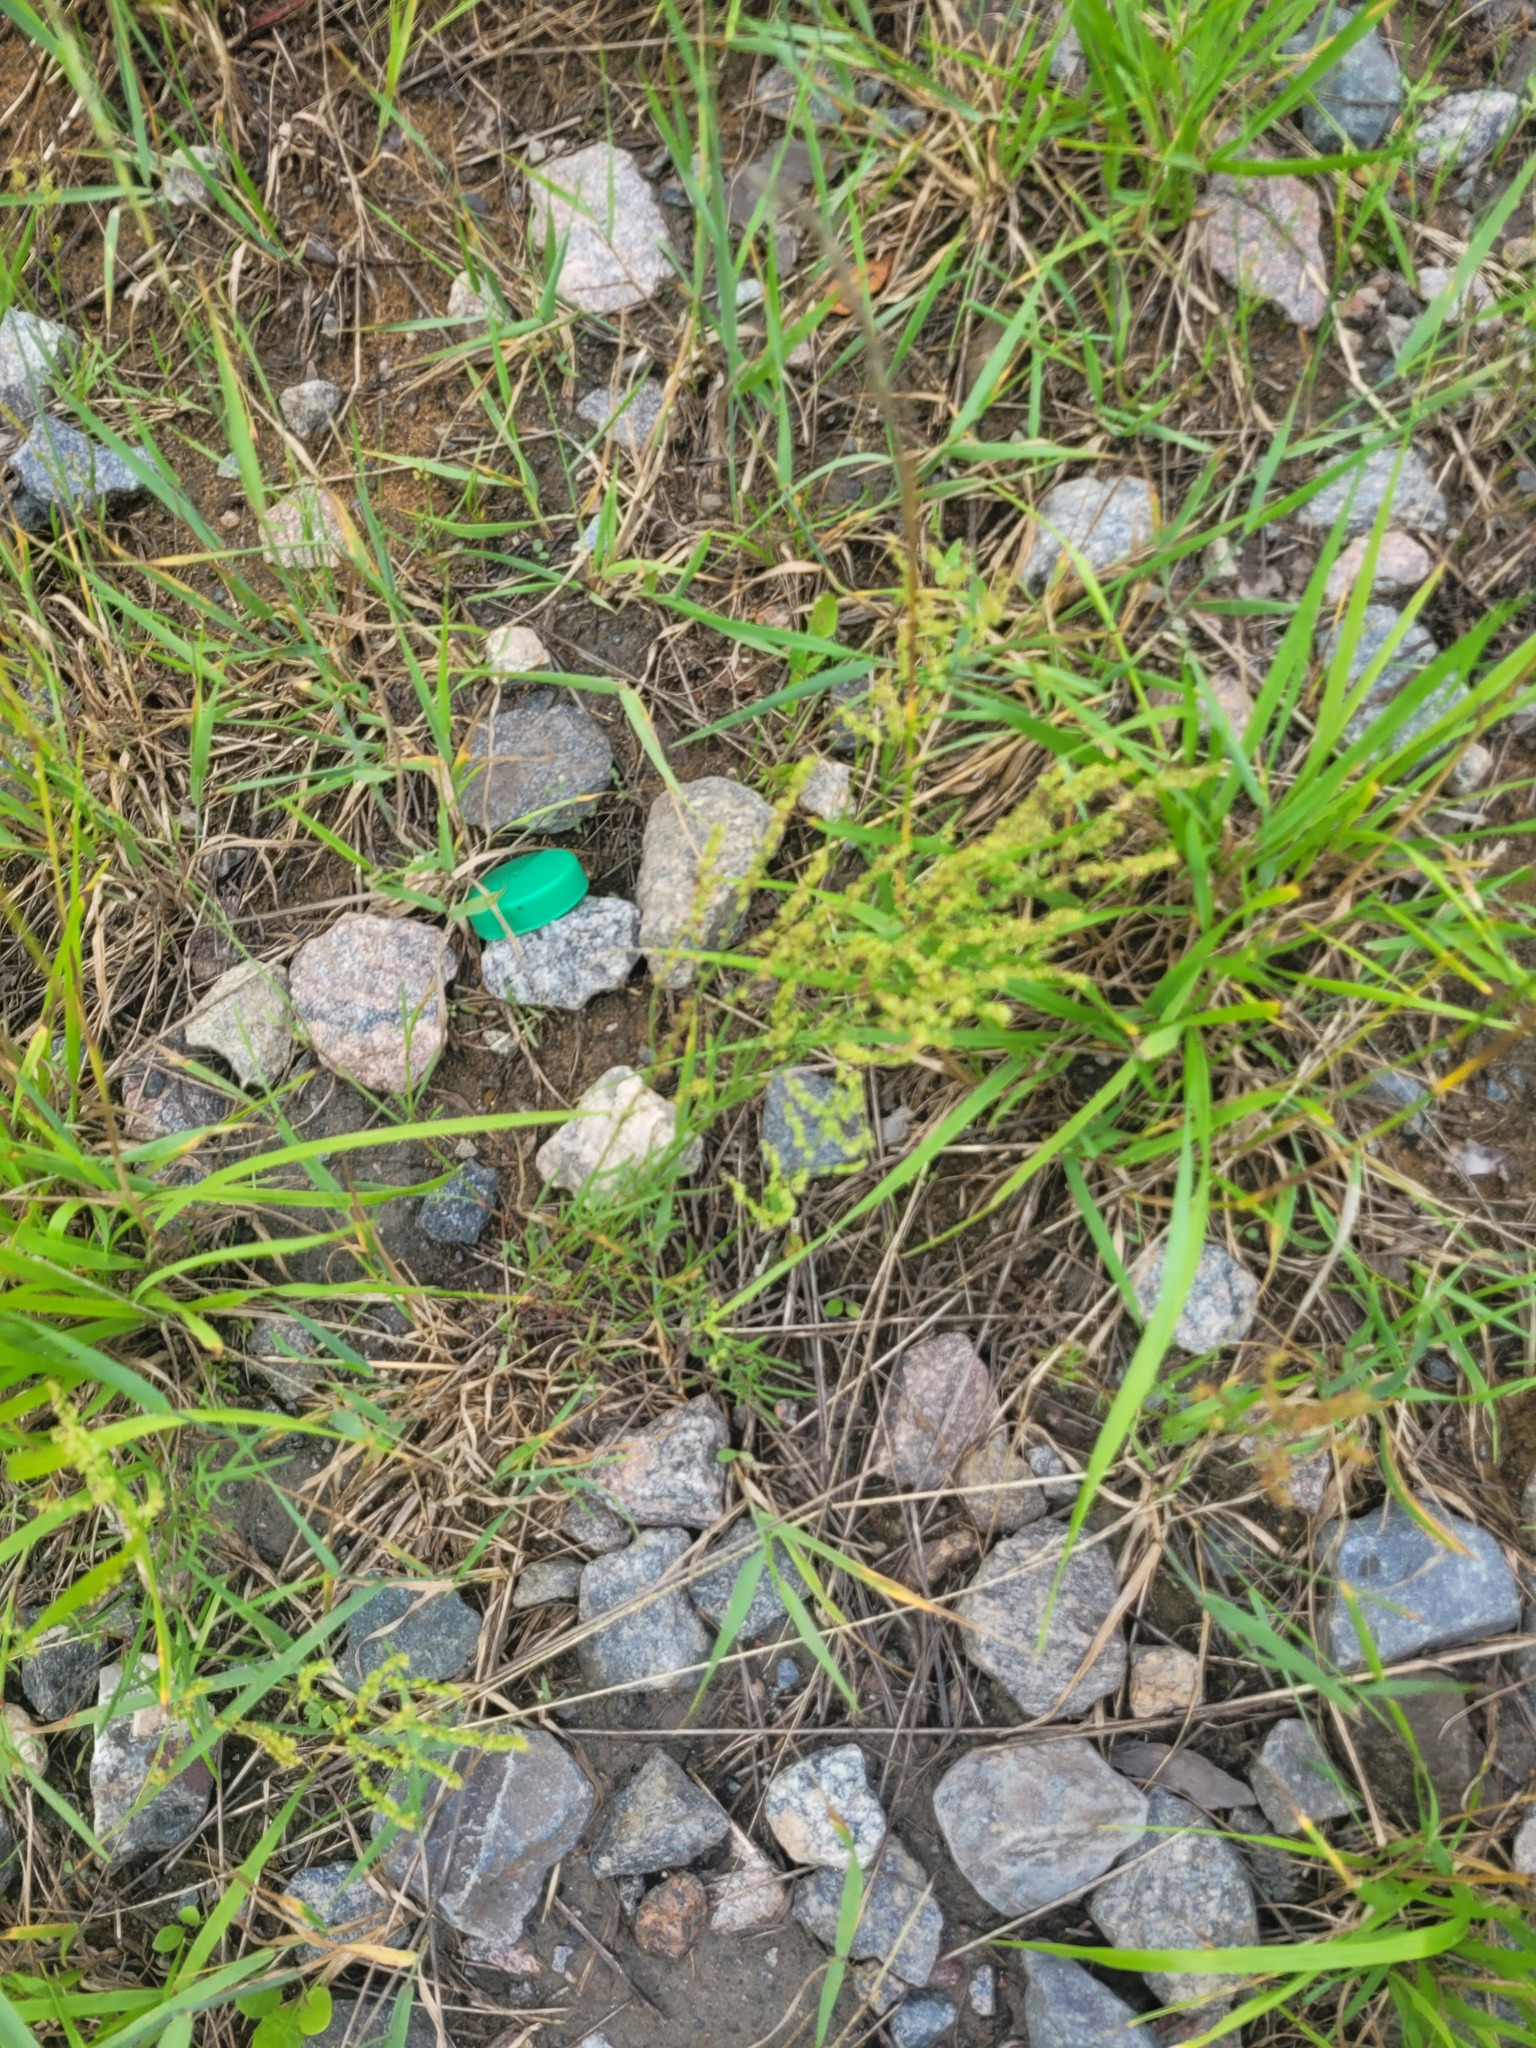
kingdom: Plantae
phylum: Tracheophyta
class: Magnoliopsida
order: Caryophyllales
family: Polygonaceae
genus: Rumex
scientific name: Rumex acetosella
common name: Common sheep sorrel
